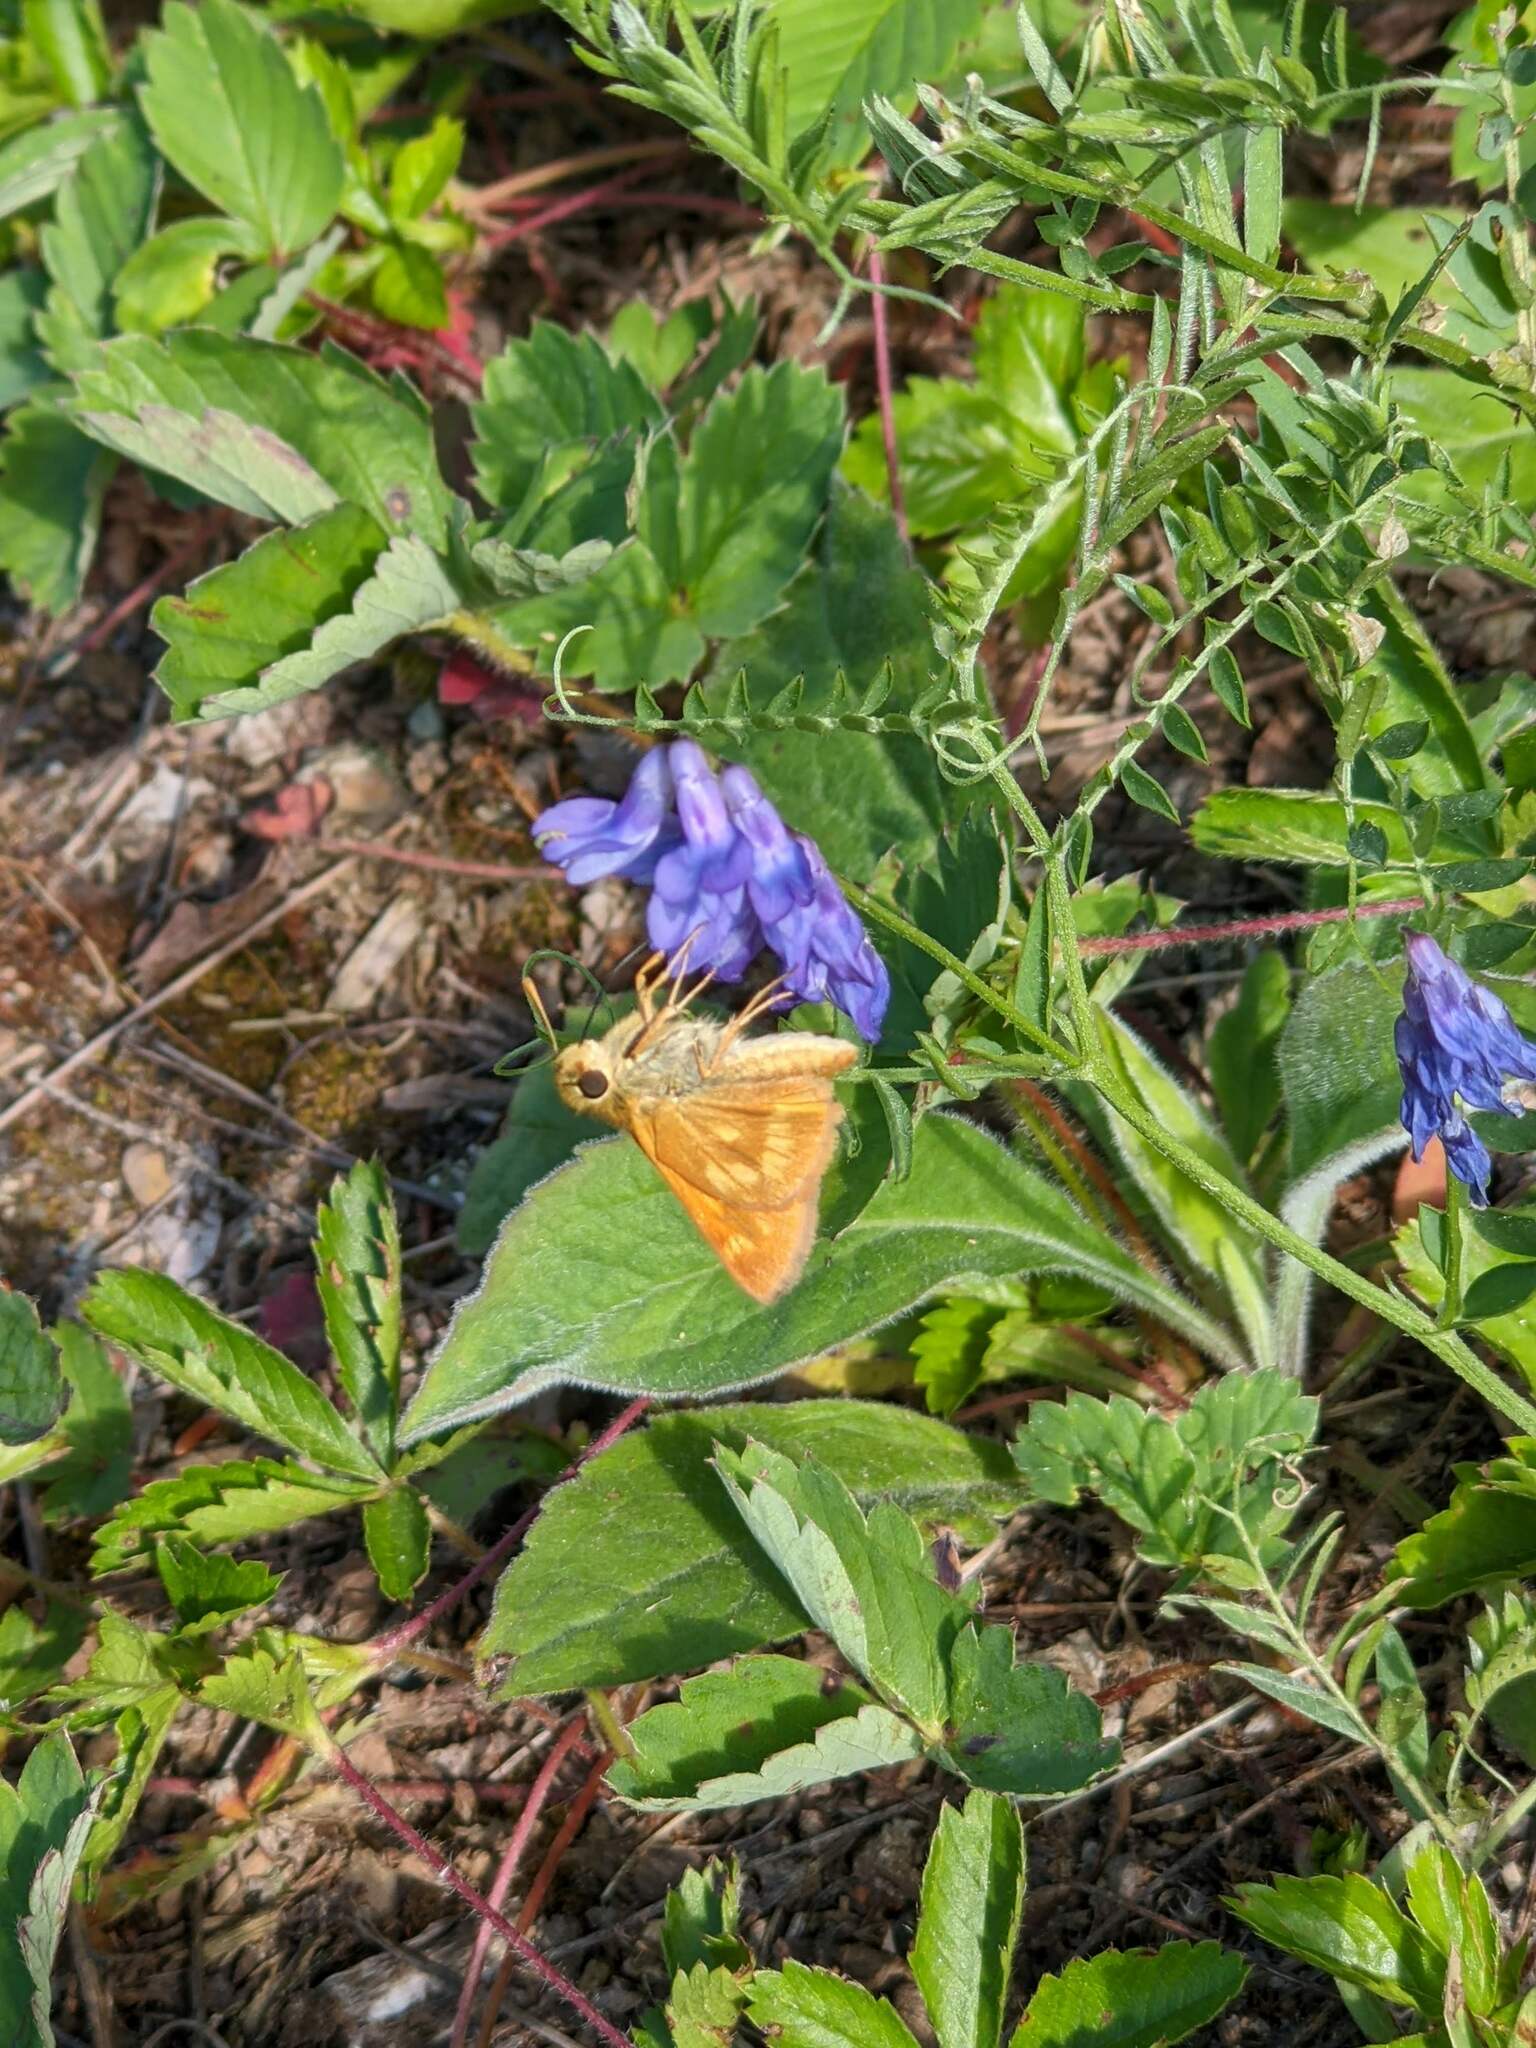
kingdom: Animalia
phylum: Arthropoda
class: Insecta
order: Lepidoptera
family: Hesperiidae
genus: Polites
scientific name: Polites mystic
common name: Long dash
